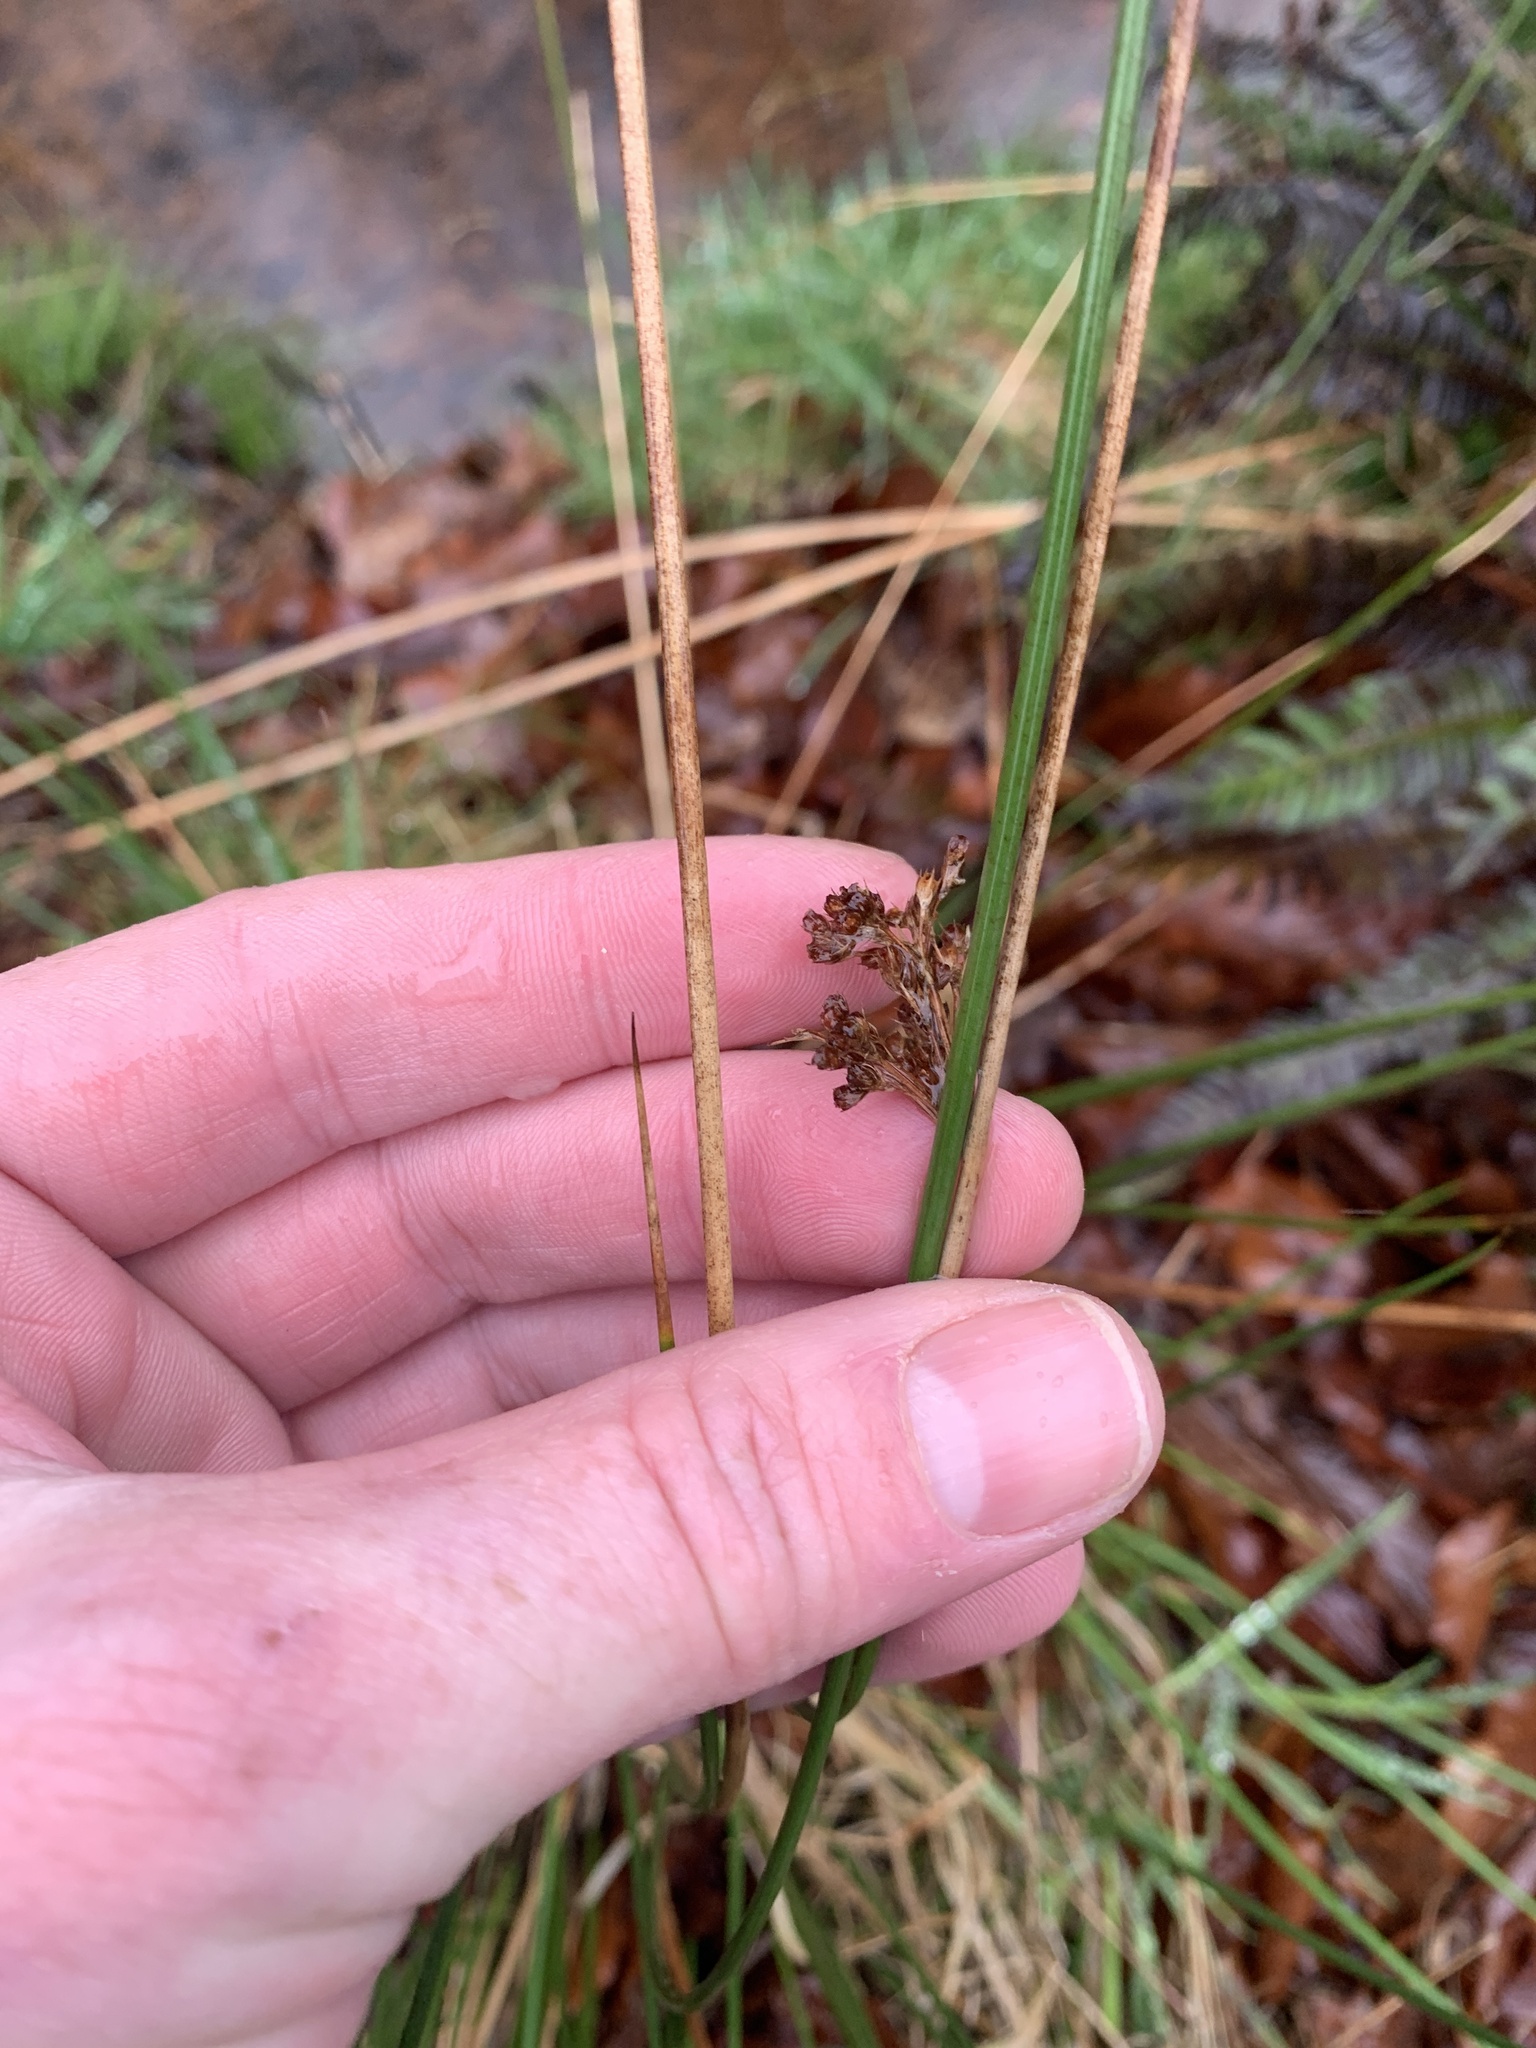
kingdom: Plantae
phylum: Tracheophyta
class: Liliopsida
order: Poales
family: Juncaceae
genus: Juncus
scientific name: Juncus effusus
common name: Soft rush
